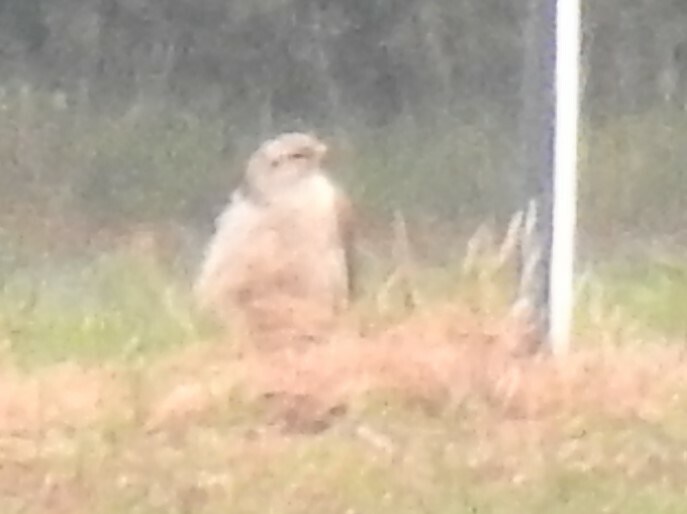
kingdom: Animalia
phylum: Chordata
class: Aves
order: Accipitriformes
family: Accipitridae
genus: Buteo
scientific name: Buteo regalis
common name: Ferruginous hawk
